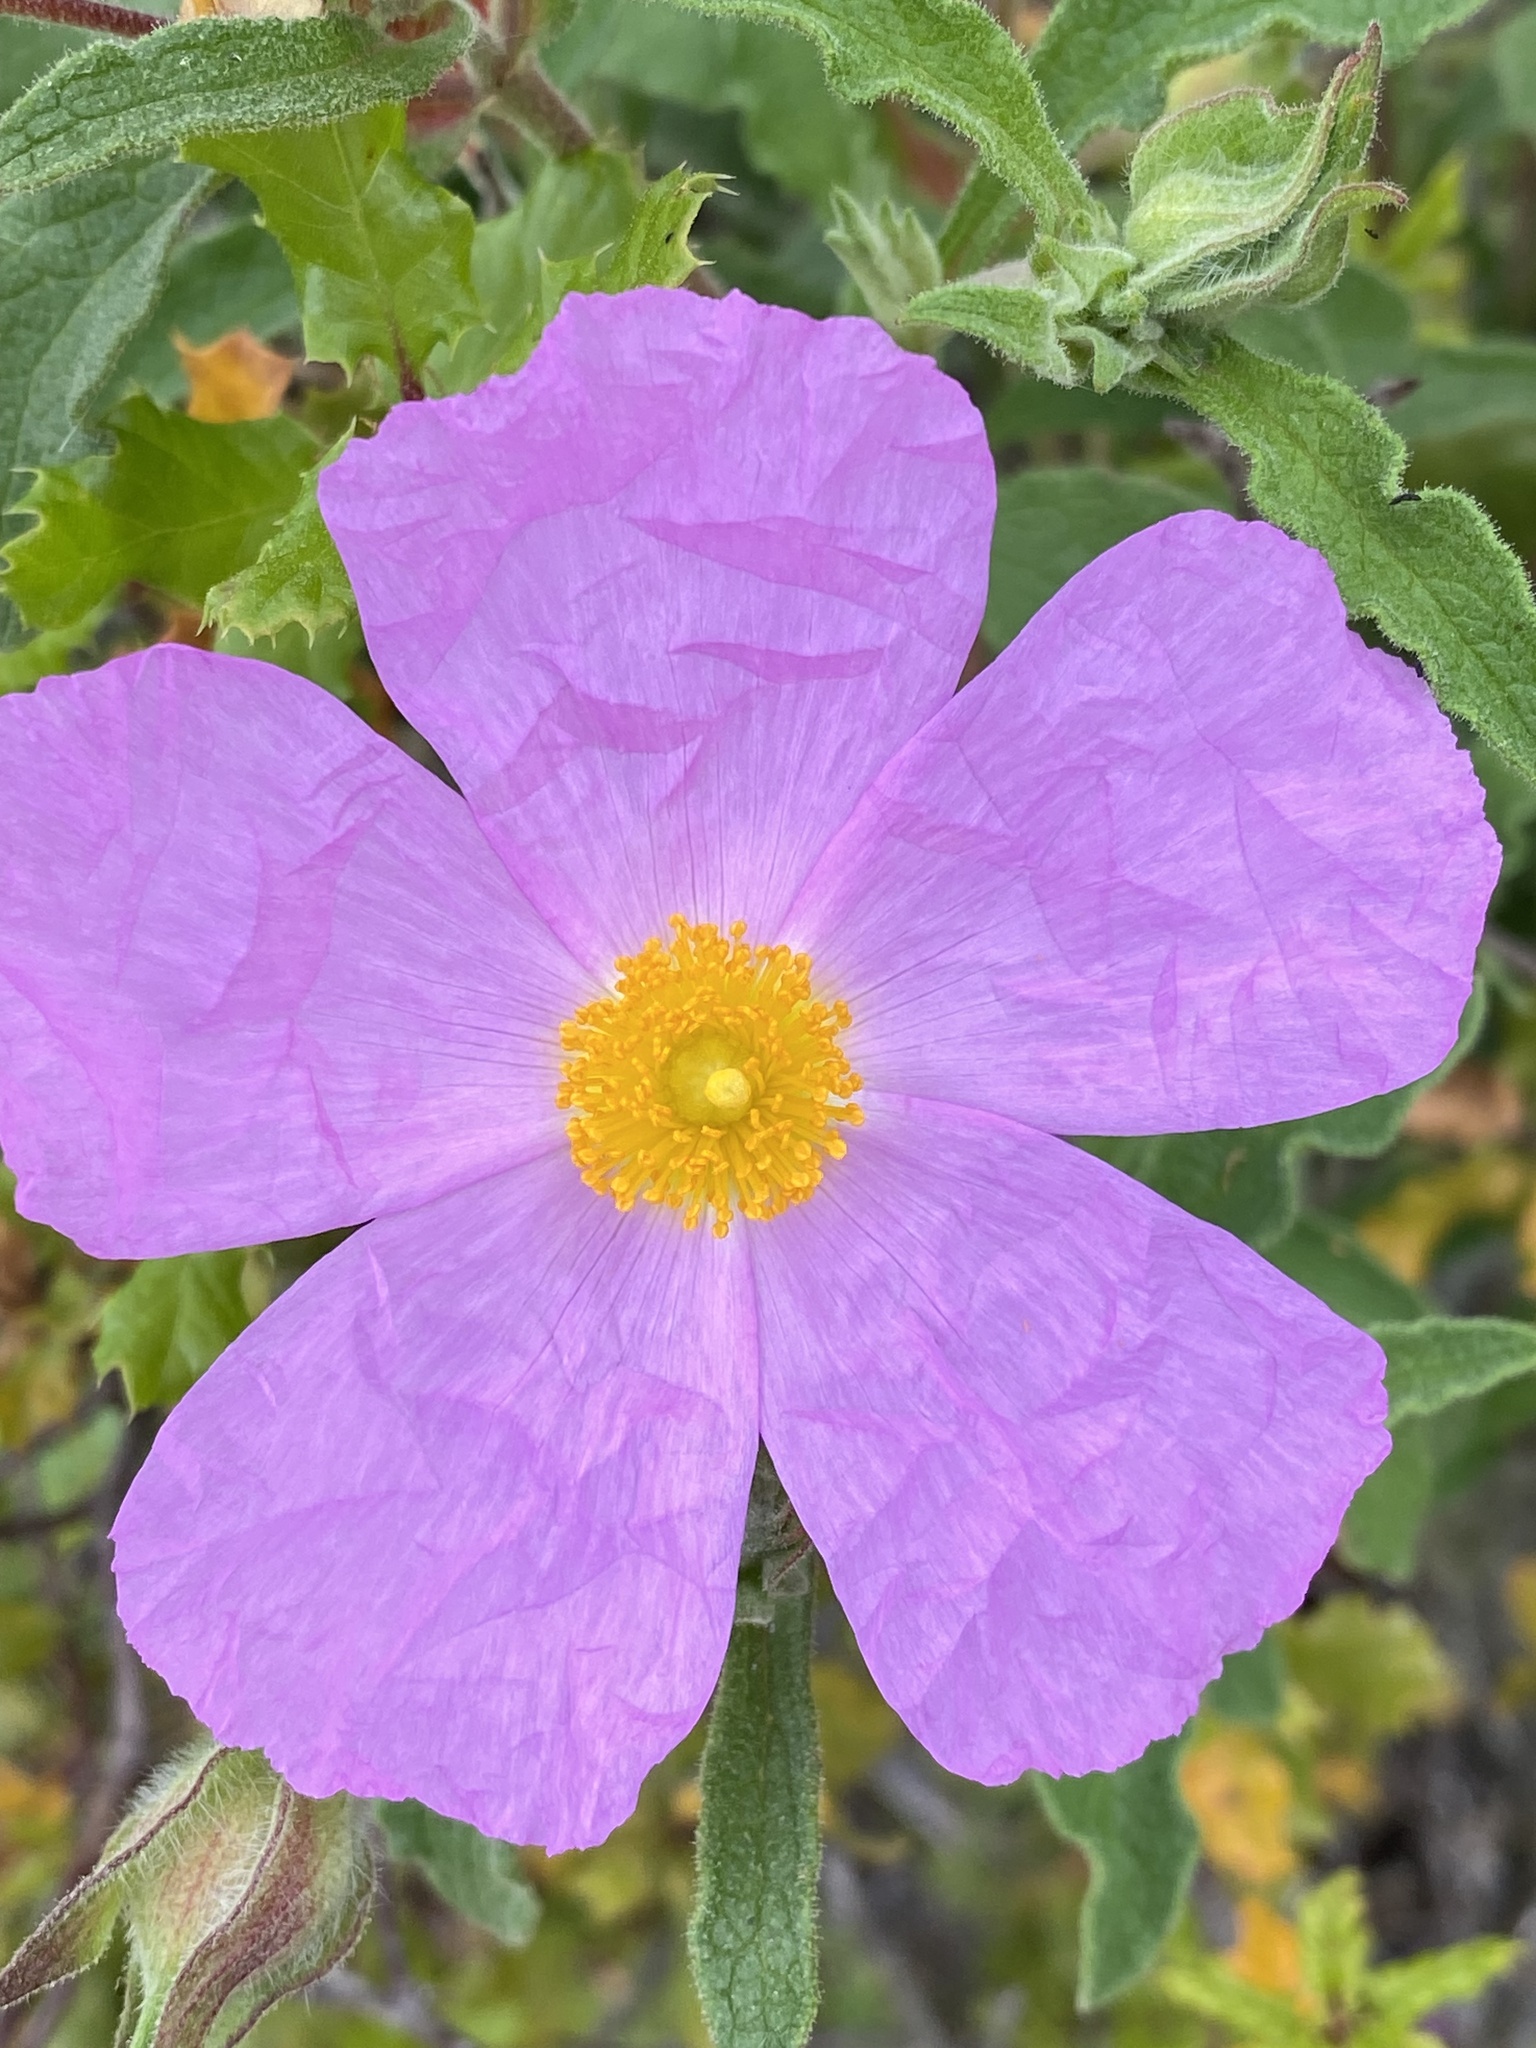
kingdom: Plantae
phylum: Tracheophyta
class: Magnoliopsida
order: Malvales
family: Cistaceae
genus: Cistus
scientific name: Cistus creticus
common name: Cretan rockrose
